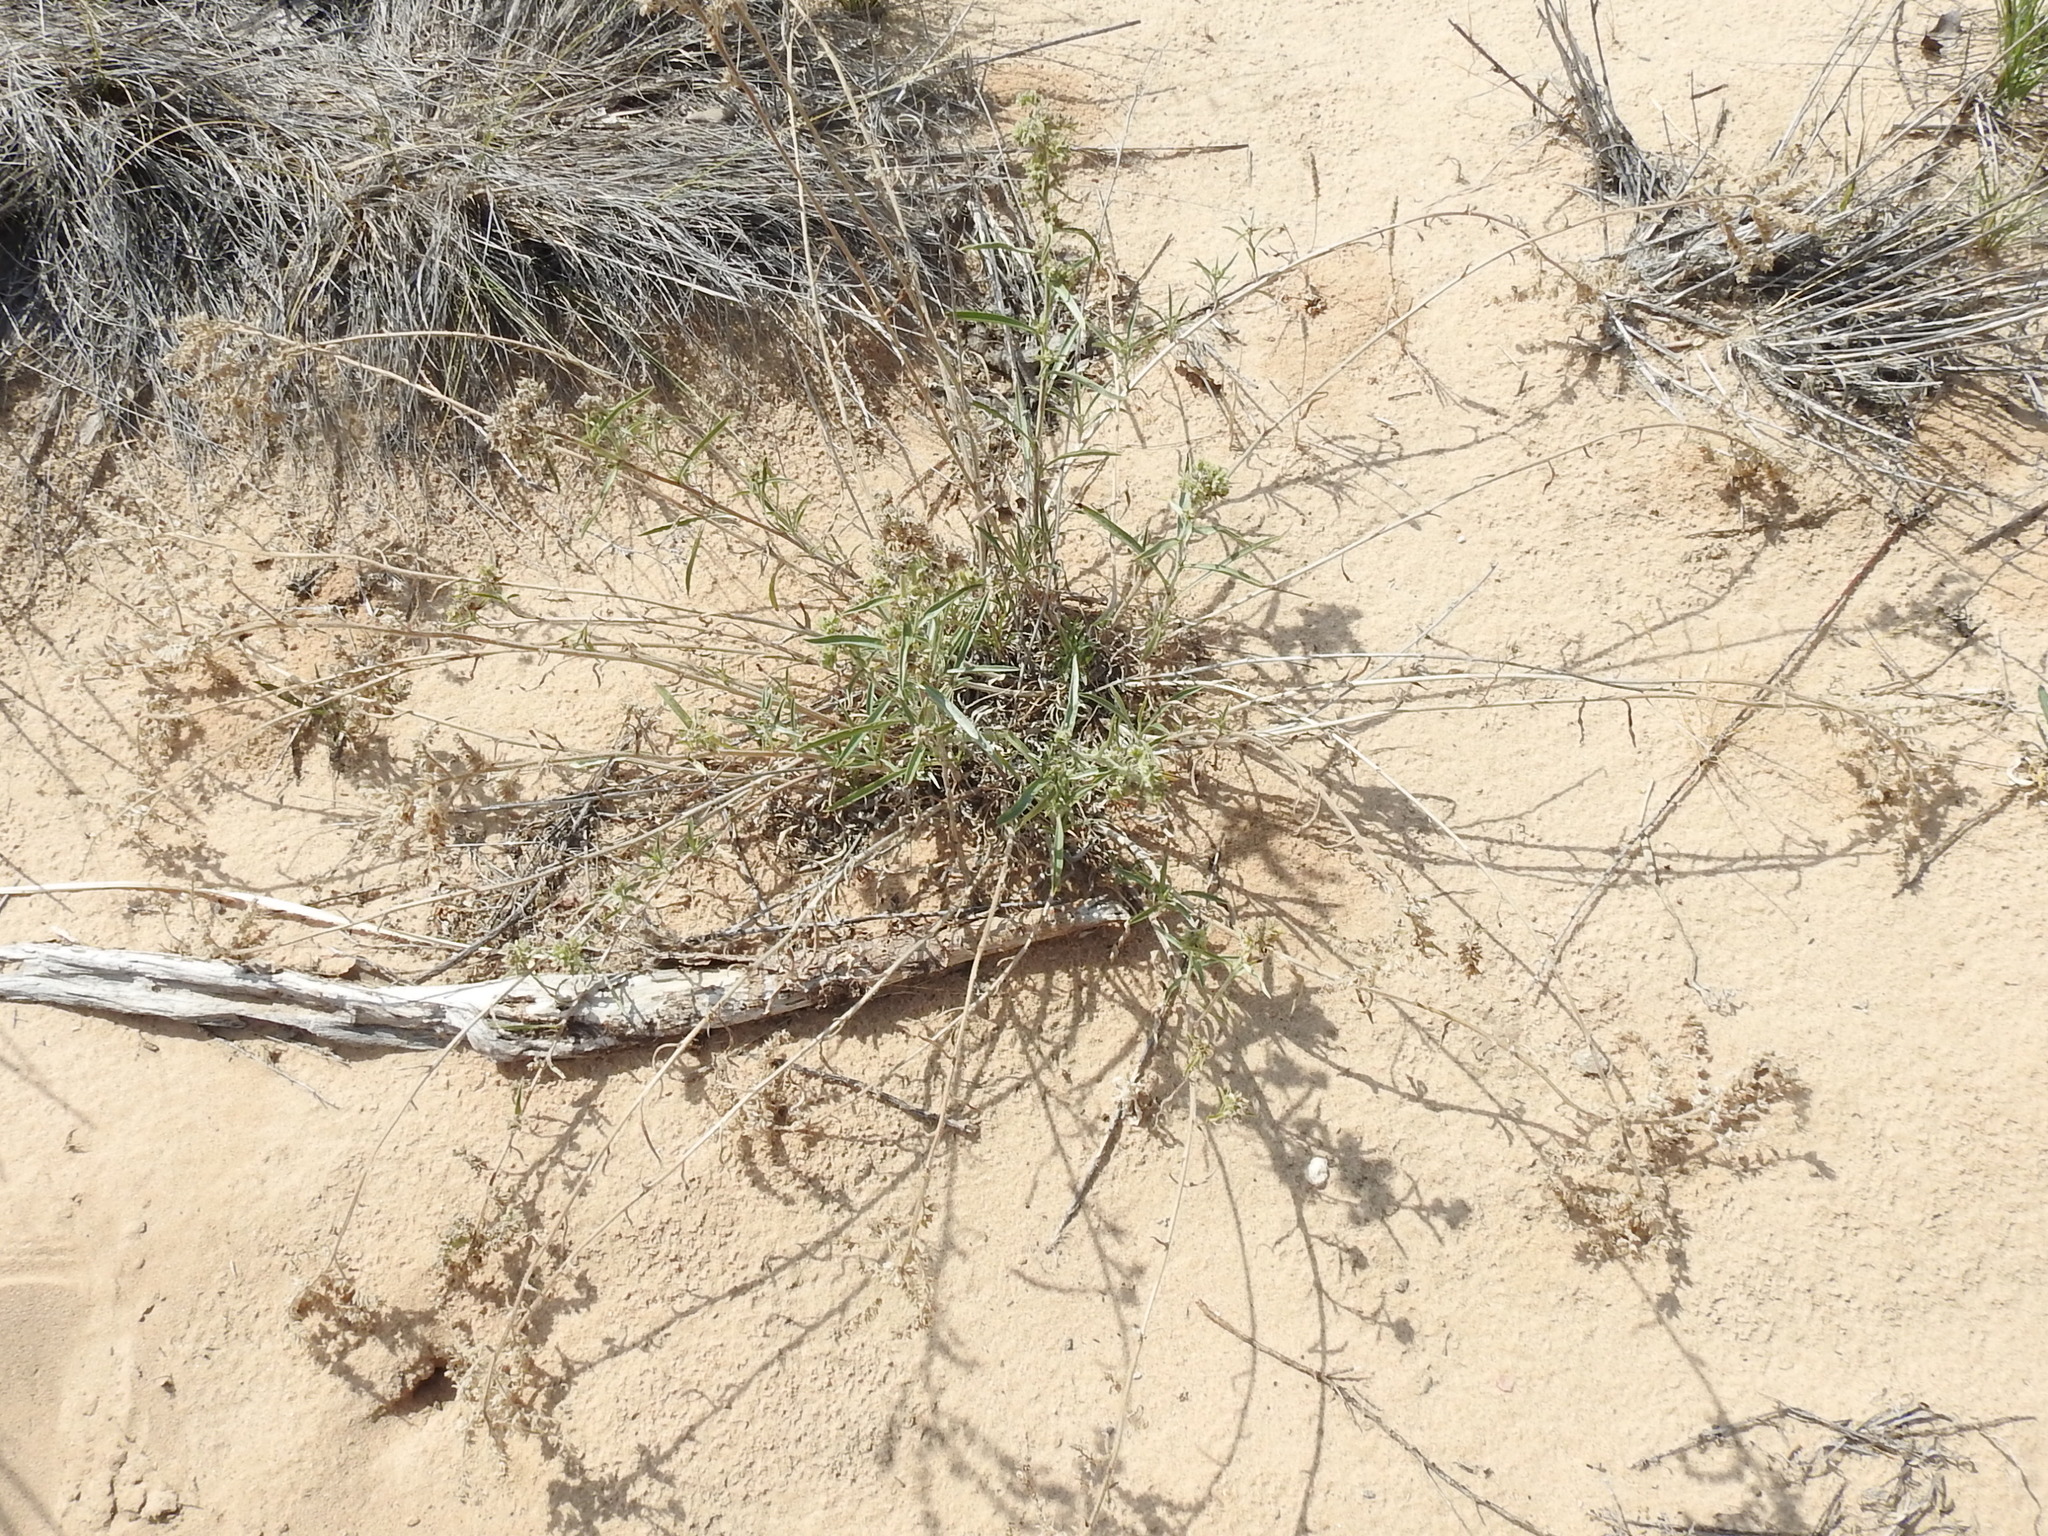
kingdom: Plantae
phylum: Tracheophyta
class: Magnoliopsida
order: Boraginales
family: Boraginaceae
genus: Oreocarya
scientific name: Oreocarya suffruticosa
